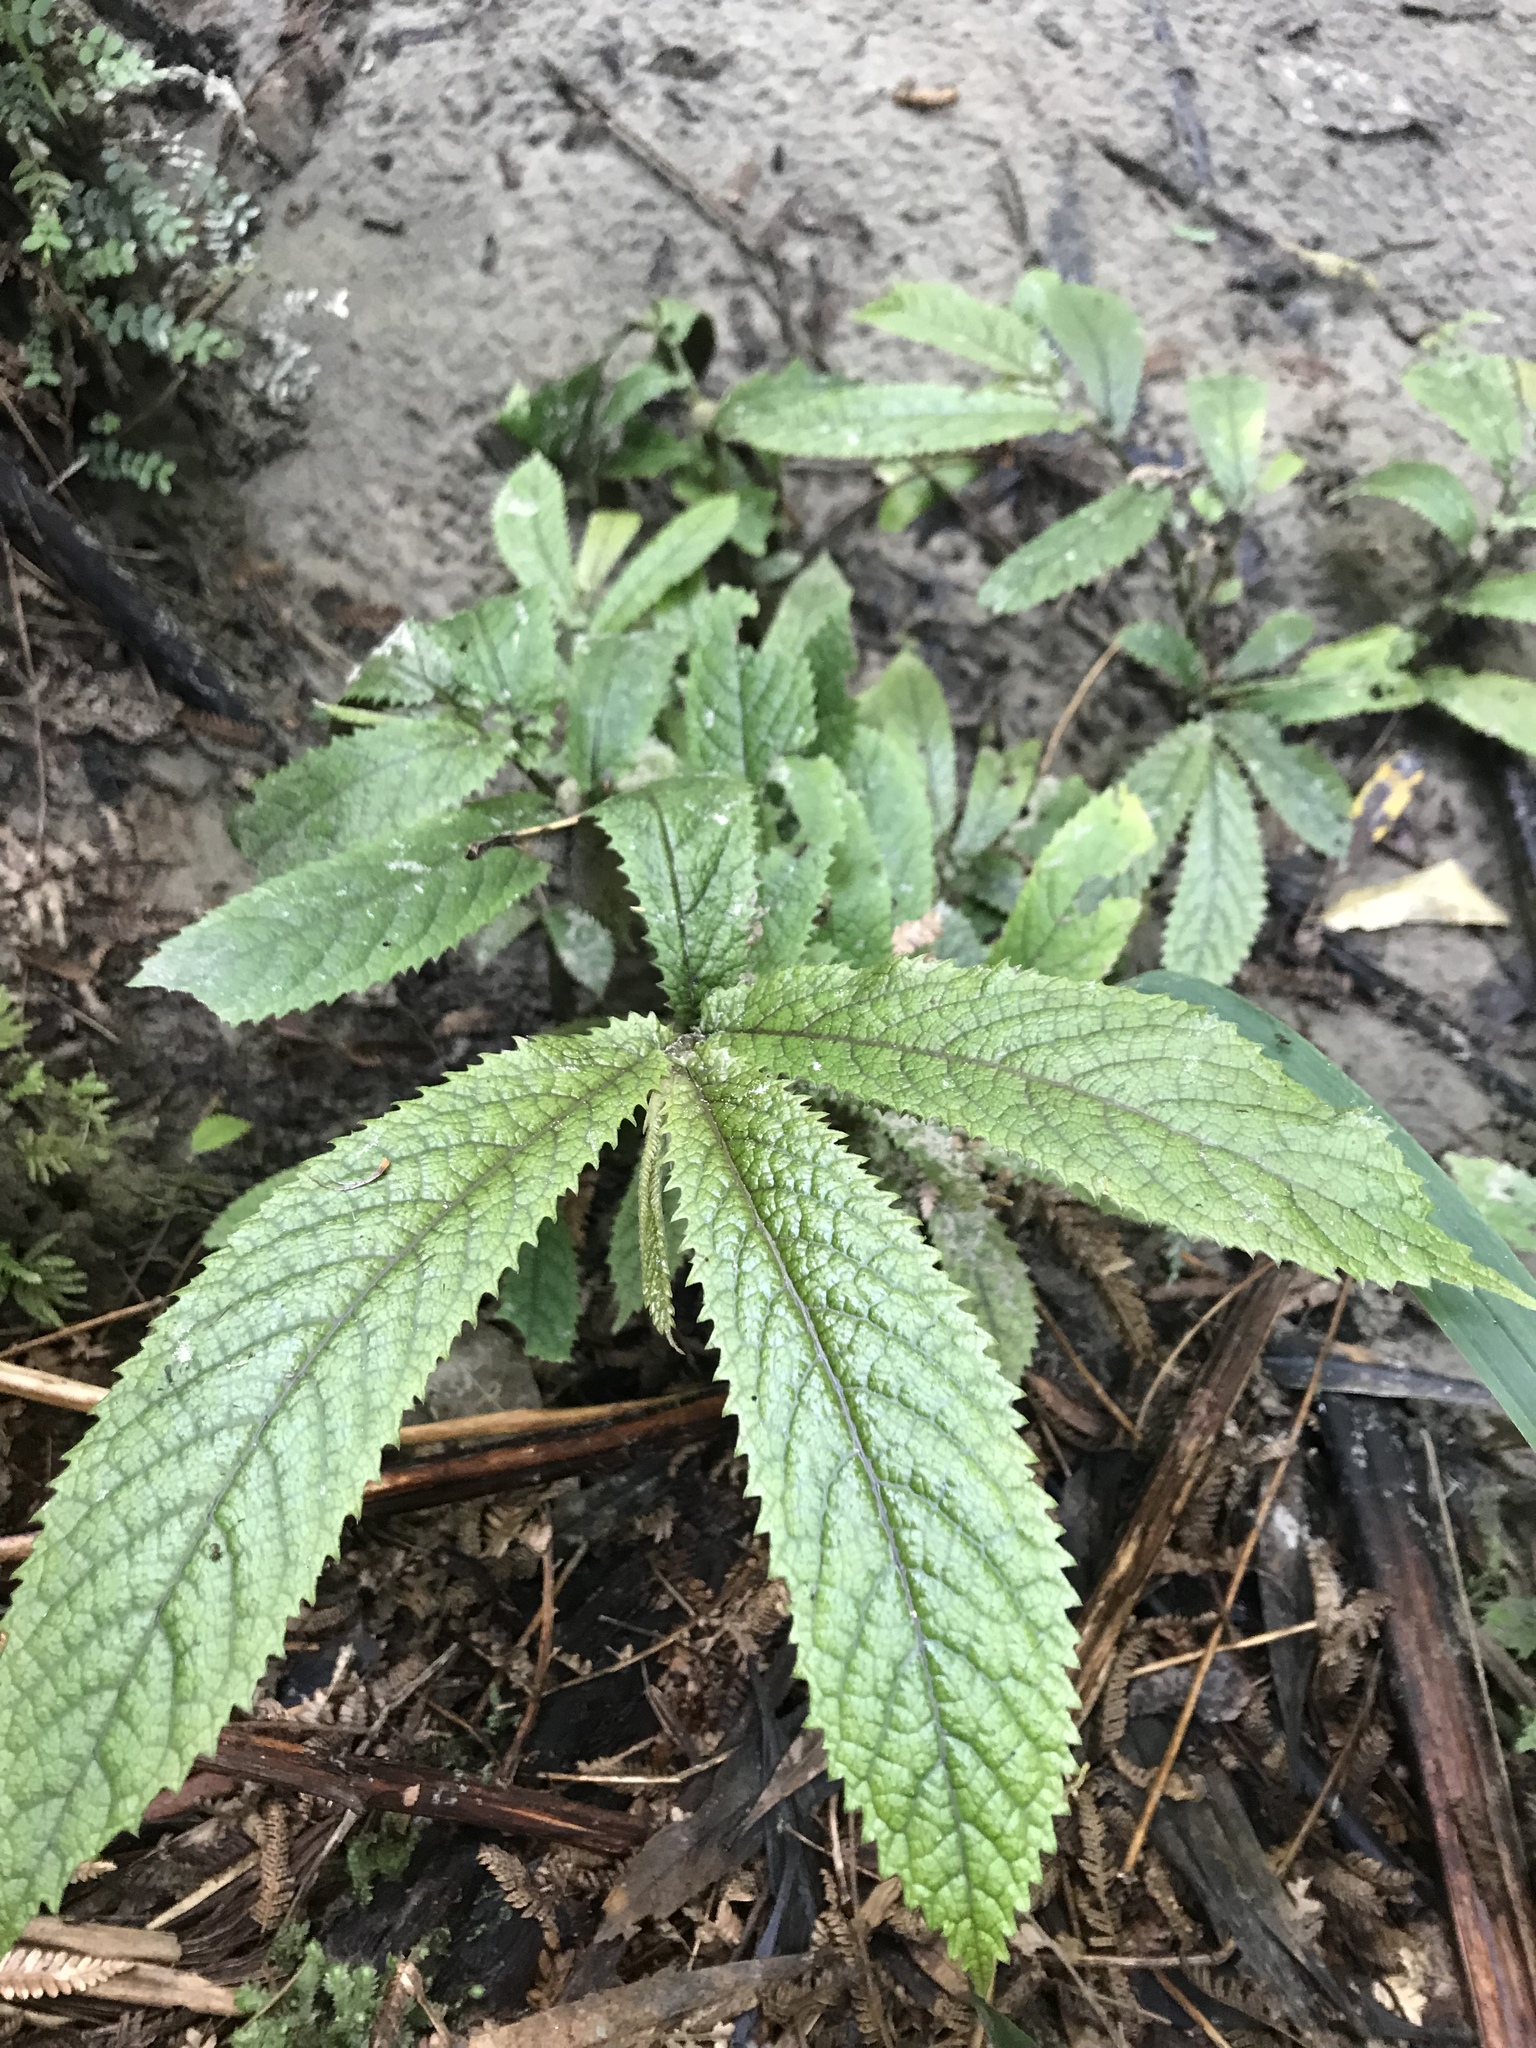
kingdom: Plantae
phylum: Tracheophyta
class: Magnoliopsida
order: Rosales
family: Urticaceae
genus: Elatostema
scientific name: Elatostema rugosum
